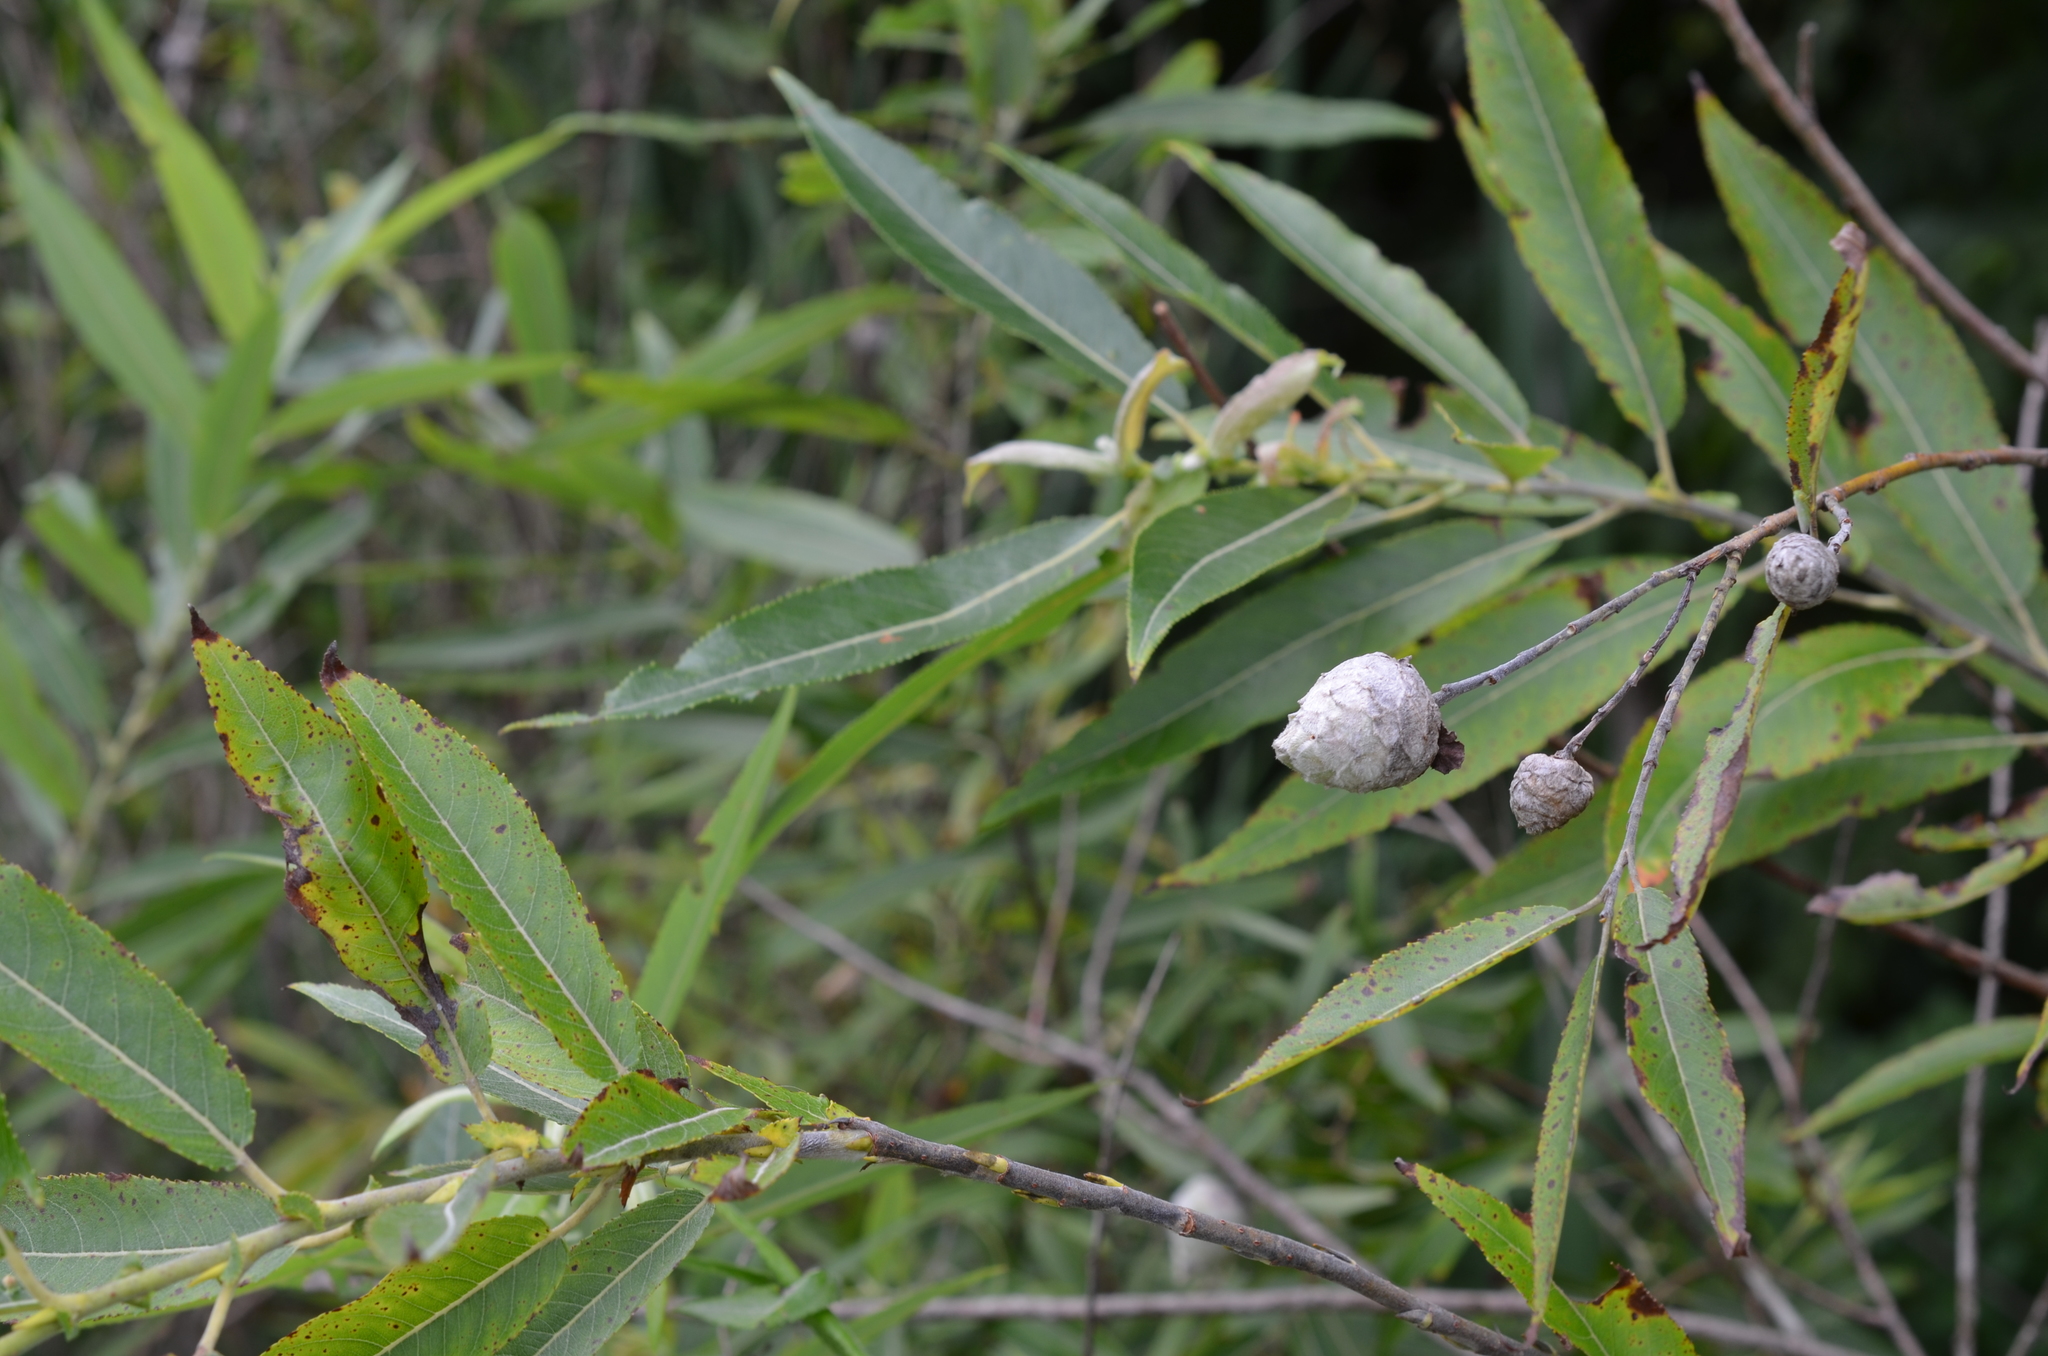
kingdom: Animalia
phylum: Arthropoda
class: Insecta
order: Diptera
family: Cecidomyiidae
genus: Rabdophaga
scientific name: Rabdophaga strobiloides
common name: Willow pinecone gall midge
